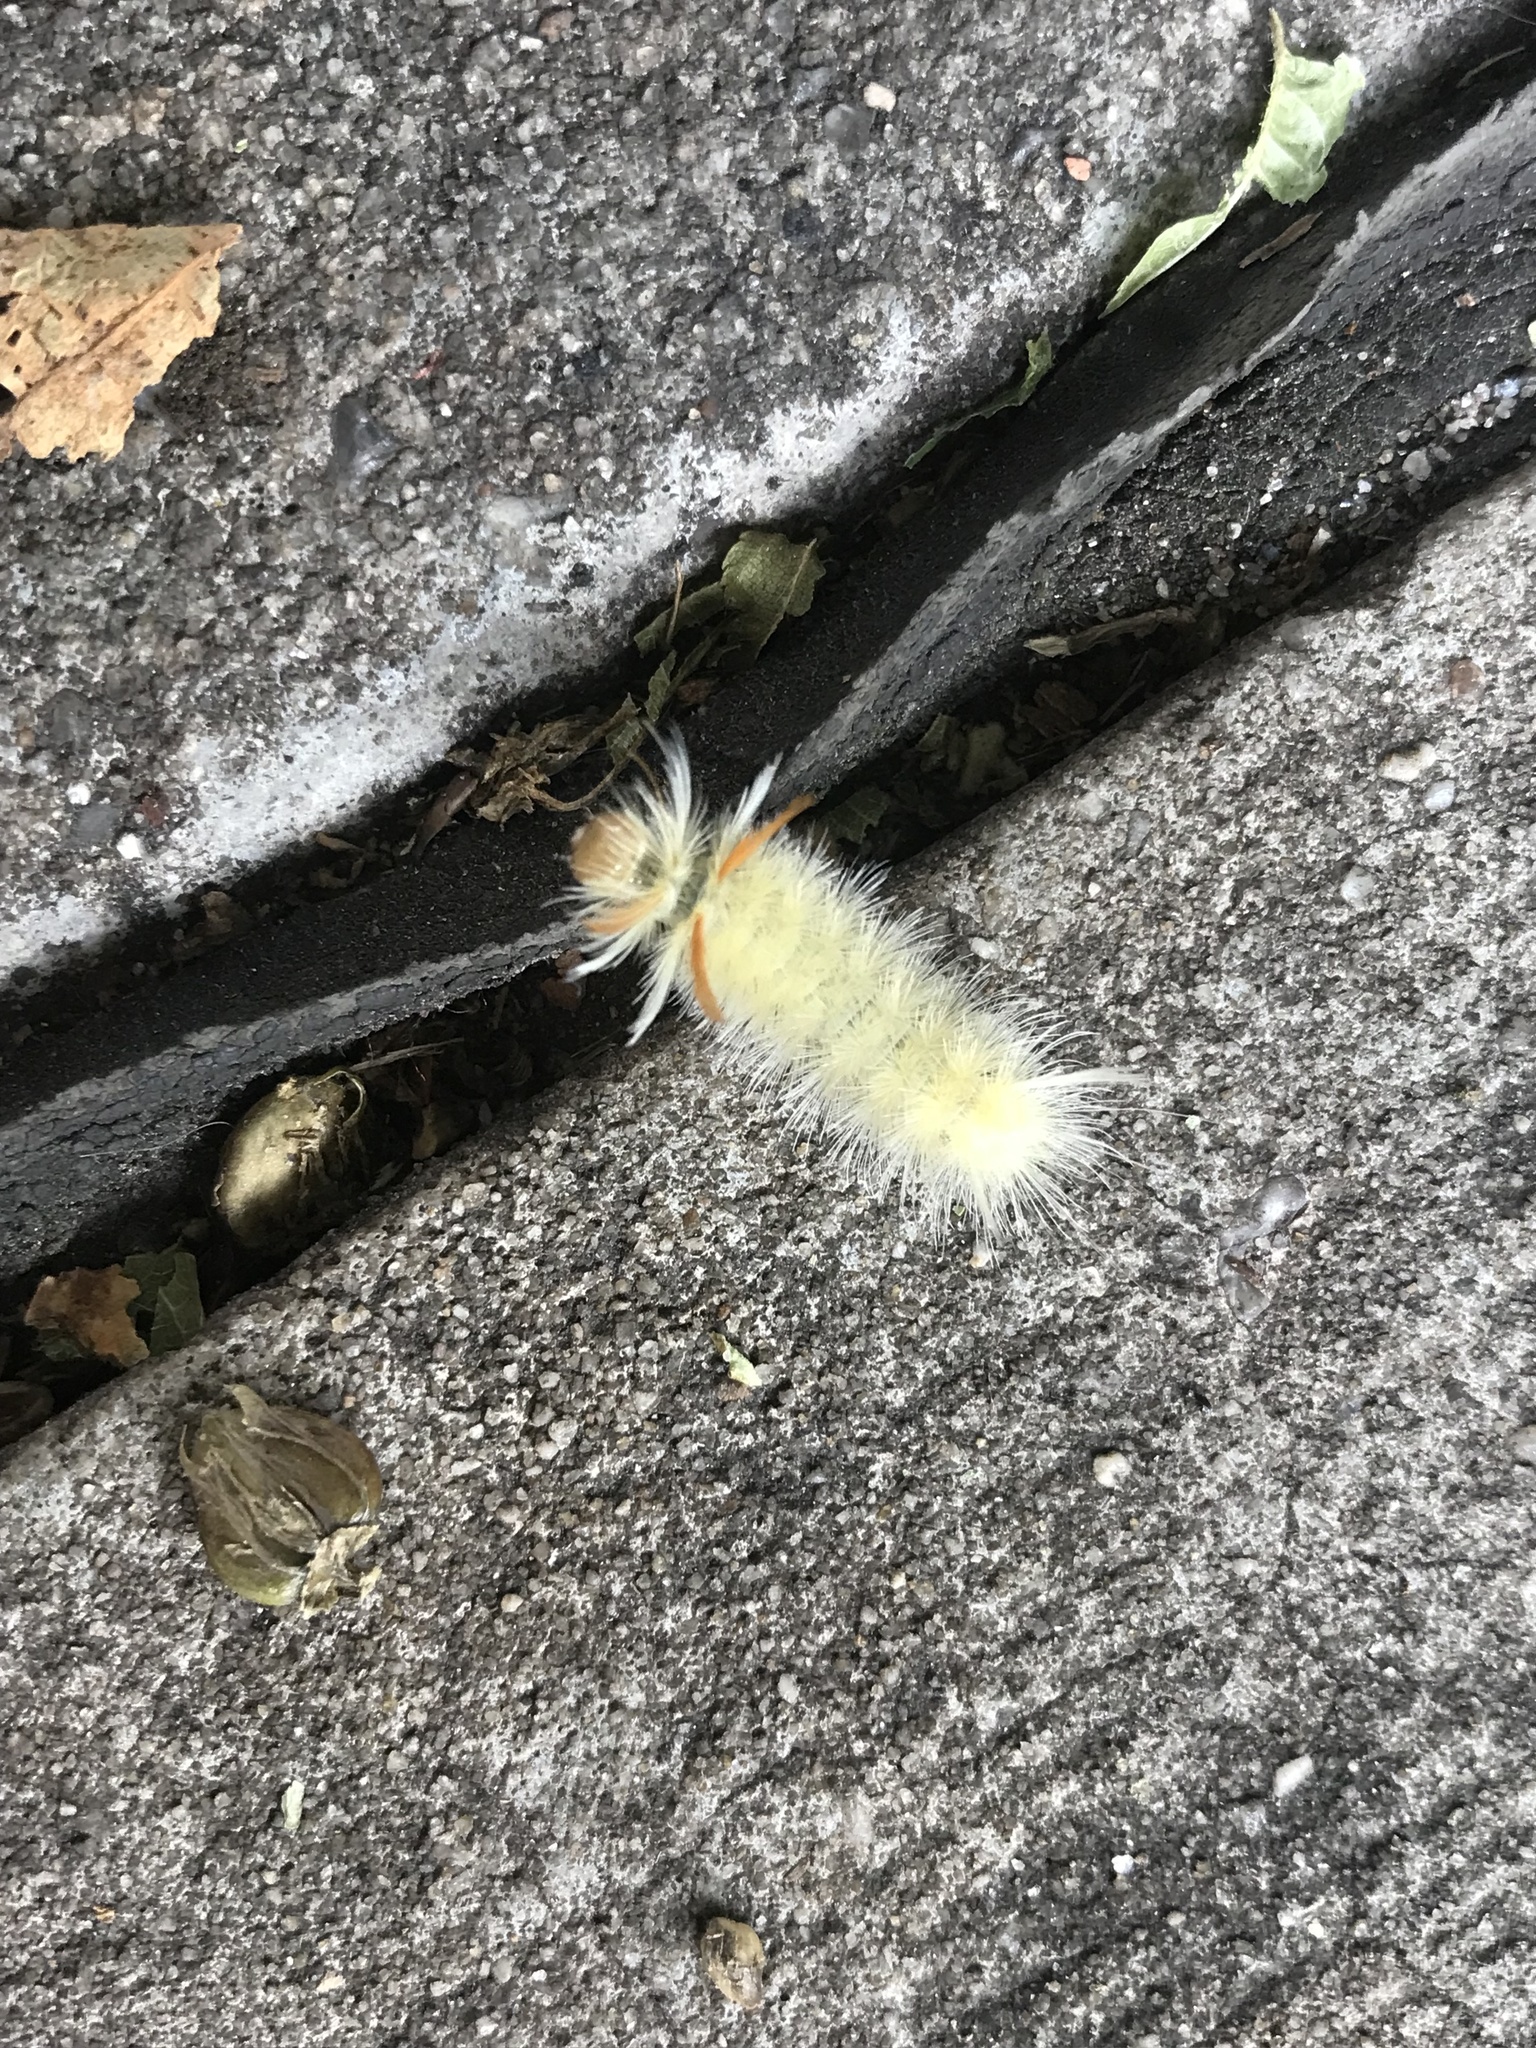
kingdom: Animalia
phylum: Arthropoda
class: Insecta
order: Lepidoptera
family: Erebidae
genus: Halysidota
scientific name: Halysidota harrisii
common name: Sycamore tussock moth
